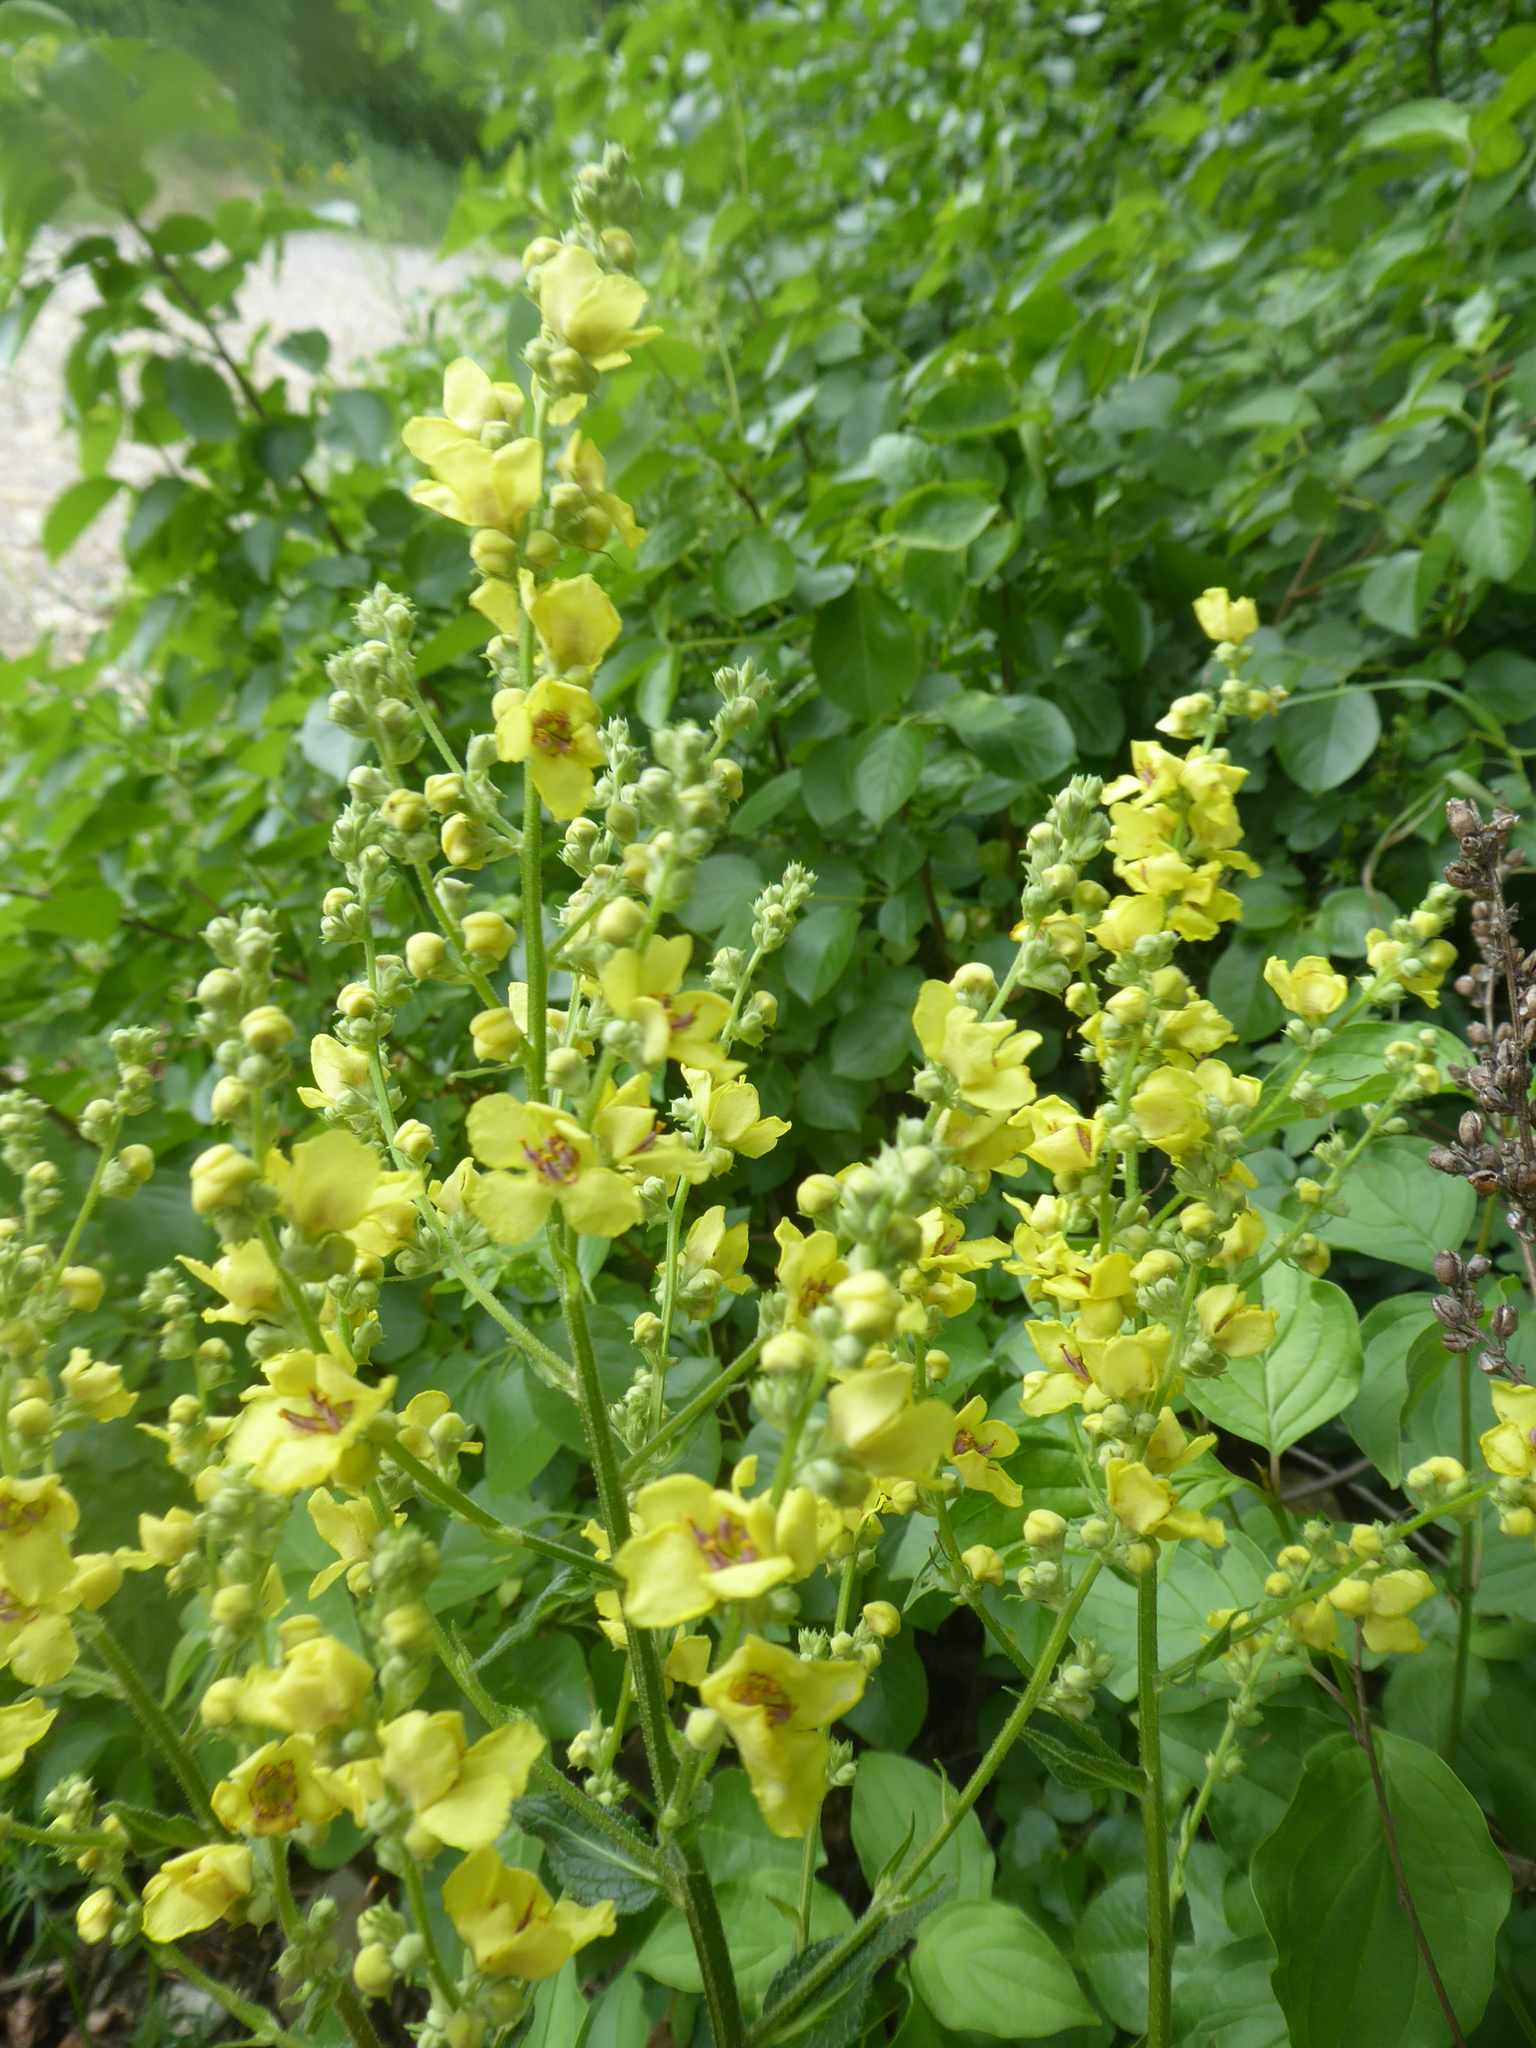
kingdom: Plantae
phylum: Tracheophyta
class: Magnoliopsida
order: Lamiales
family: Scrophulariaceae
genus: Verbascum
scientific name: Verbascum chaixii
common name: Nettle-leaved mullein
